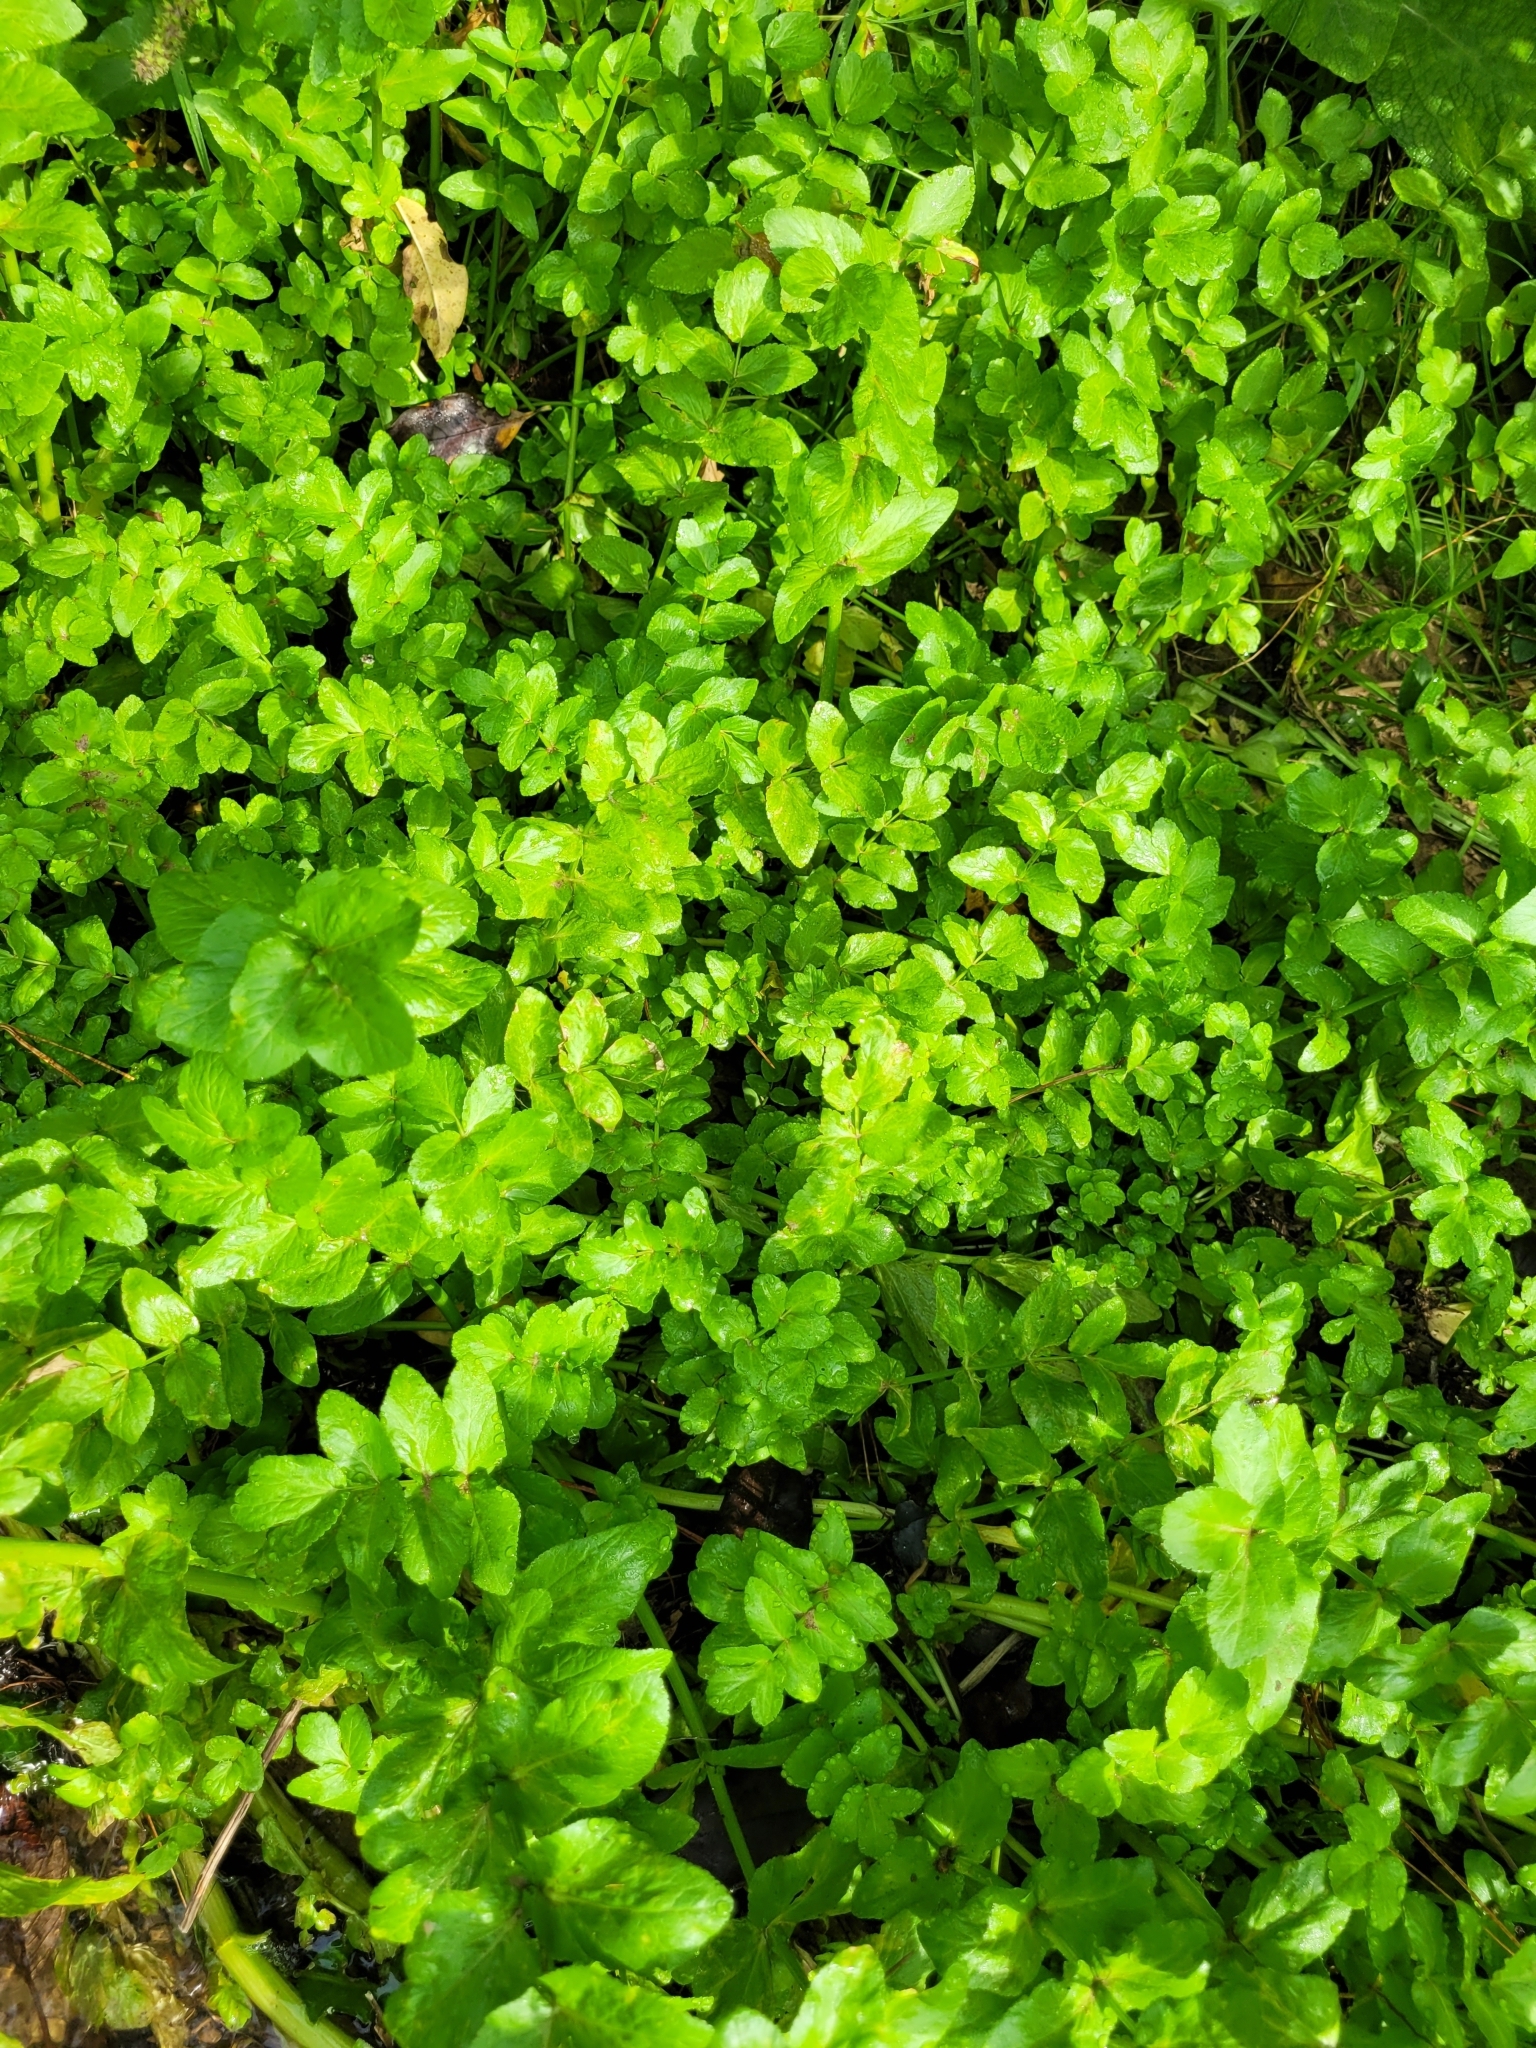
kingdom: Plantae
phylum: Tracheophyta
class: Magnoliopsida
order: Apiales
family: Apiaceae
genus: Helosciadium
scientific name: Helosciadium nodiflorum
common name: Fool's-watercress
